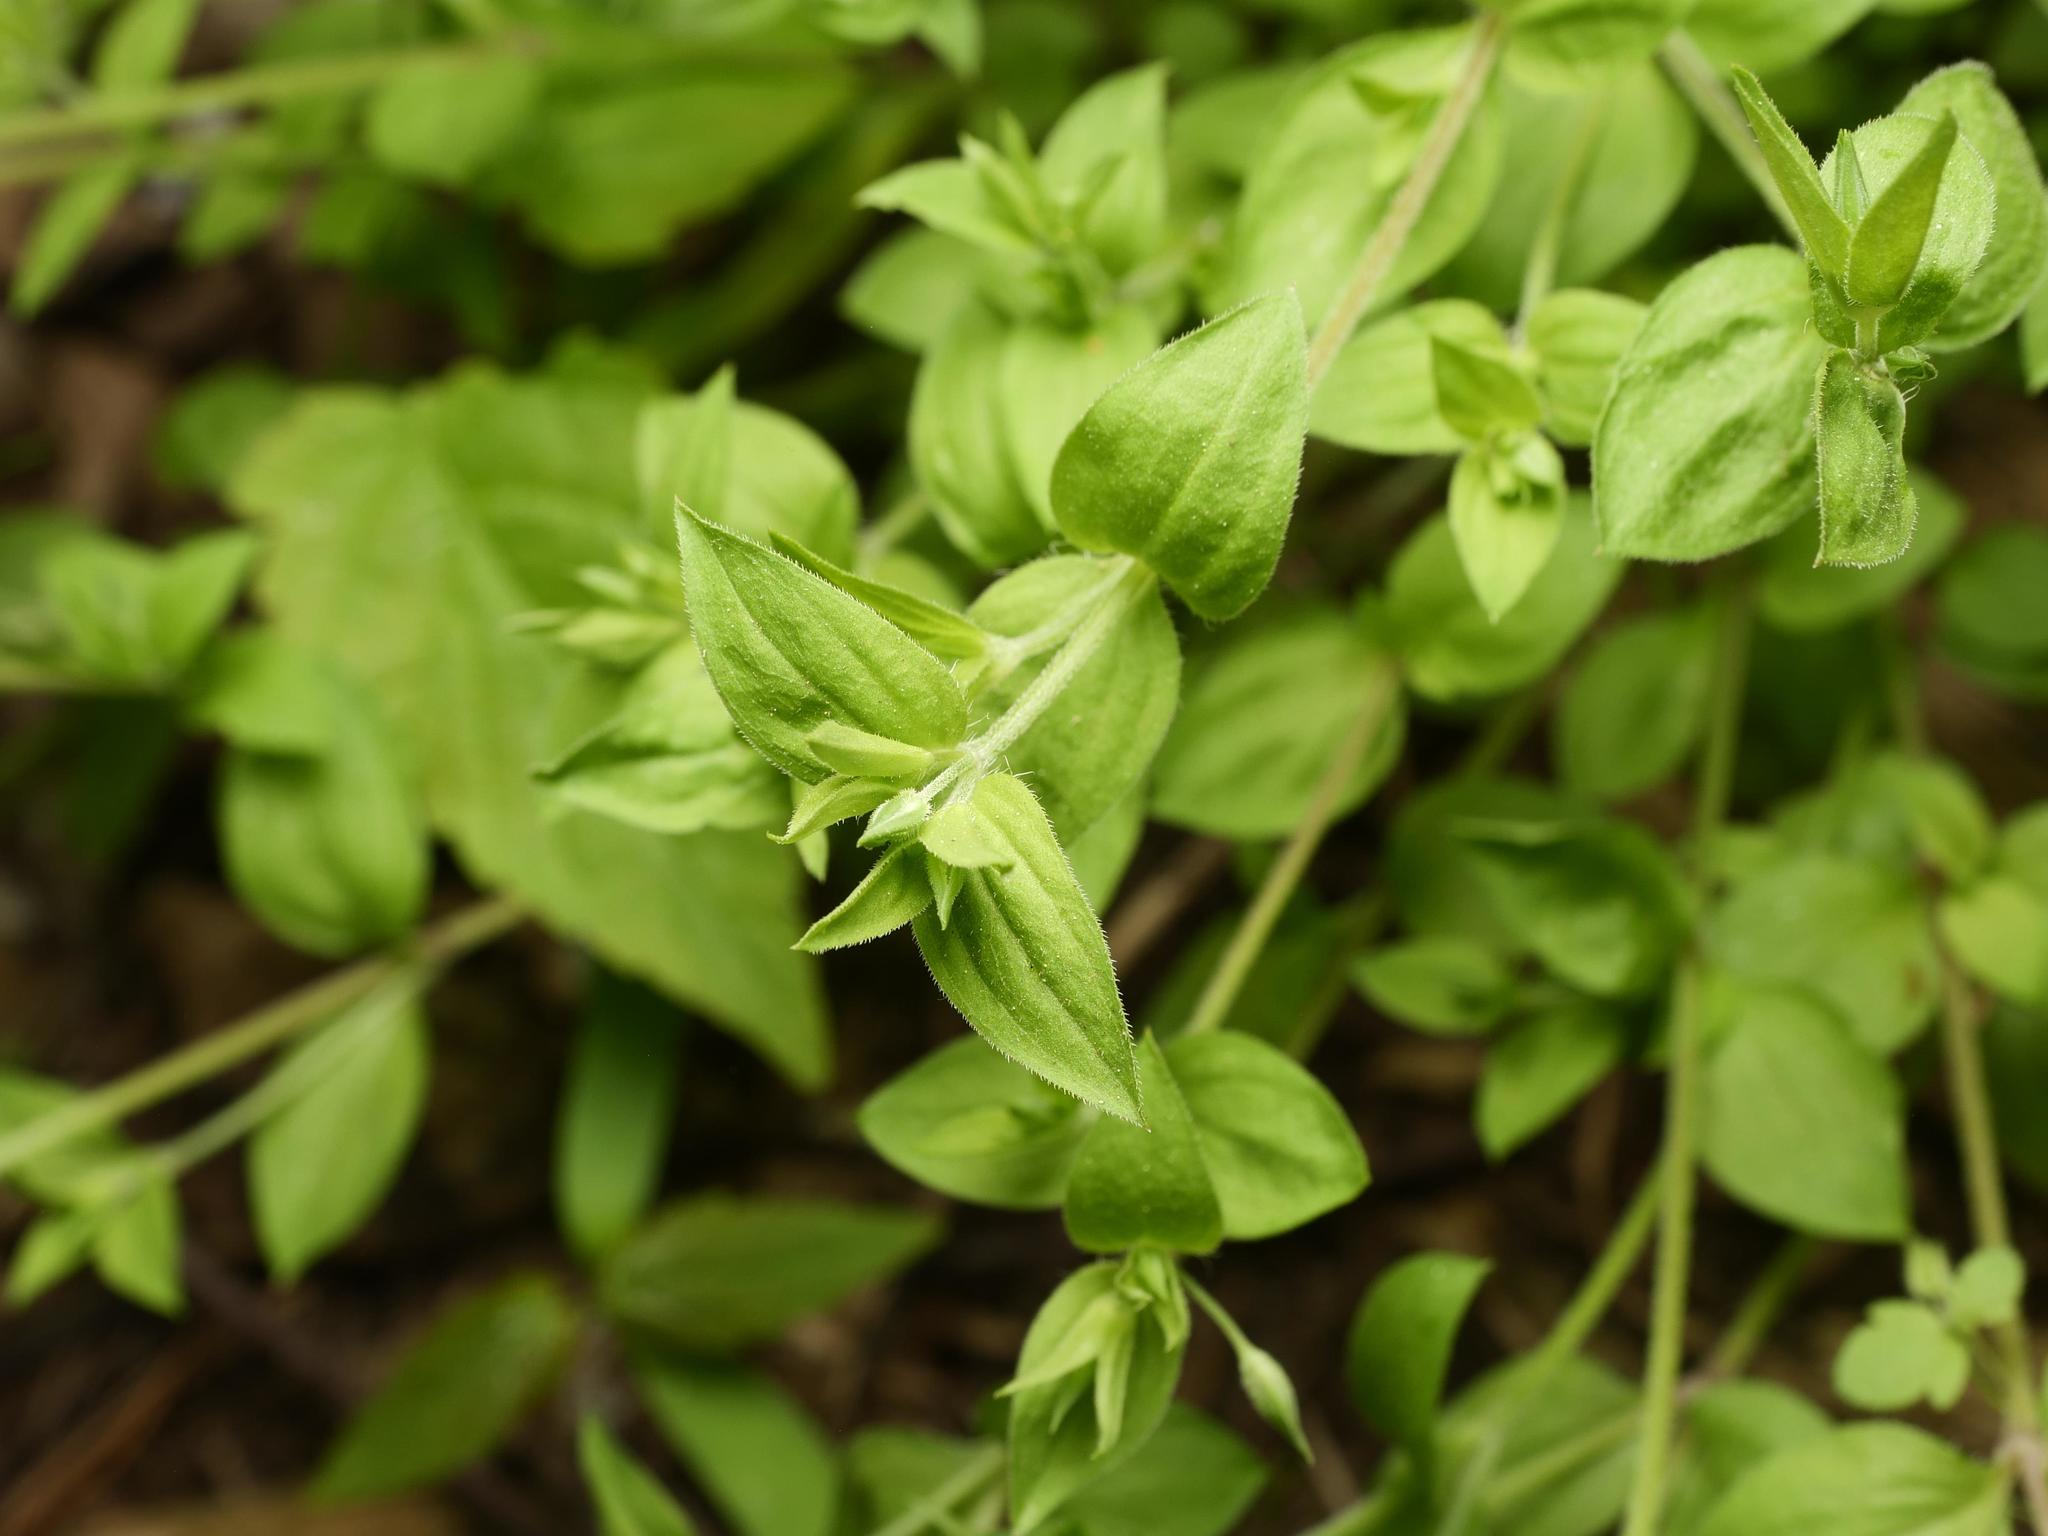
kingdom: Plantae
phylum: Tracheophyta
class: Magnoliopsida
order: Caryophyllales
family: Caryophyllaceae
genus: Moehringia
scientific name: Moehringia trinervia
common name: Three-nerved sandwort
